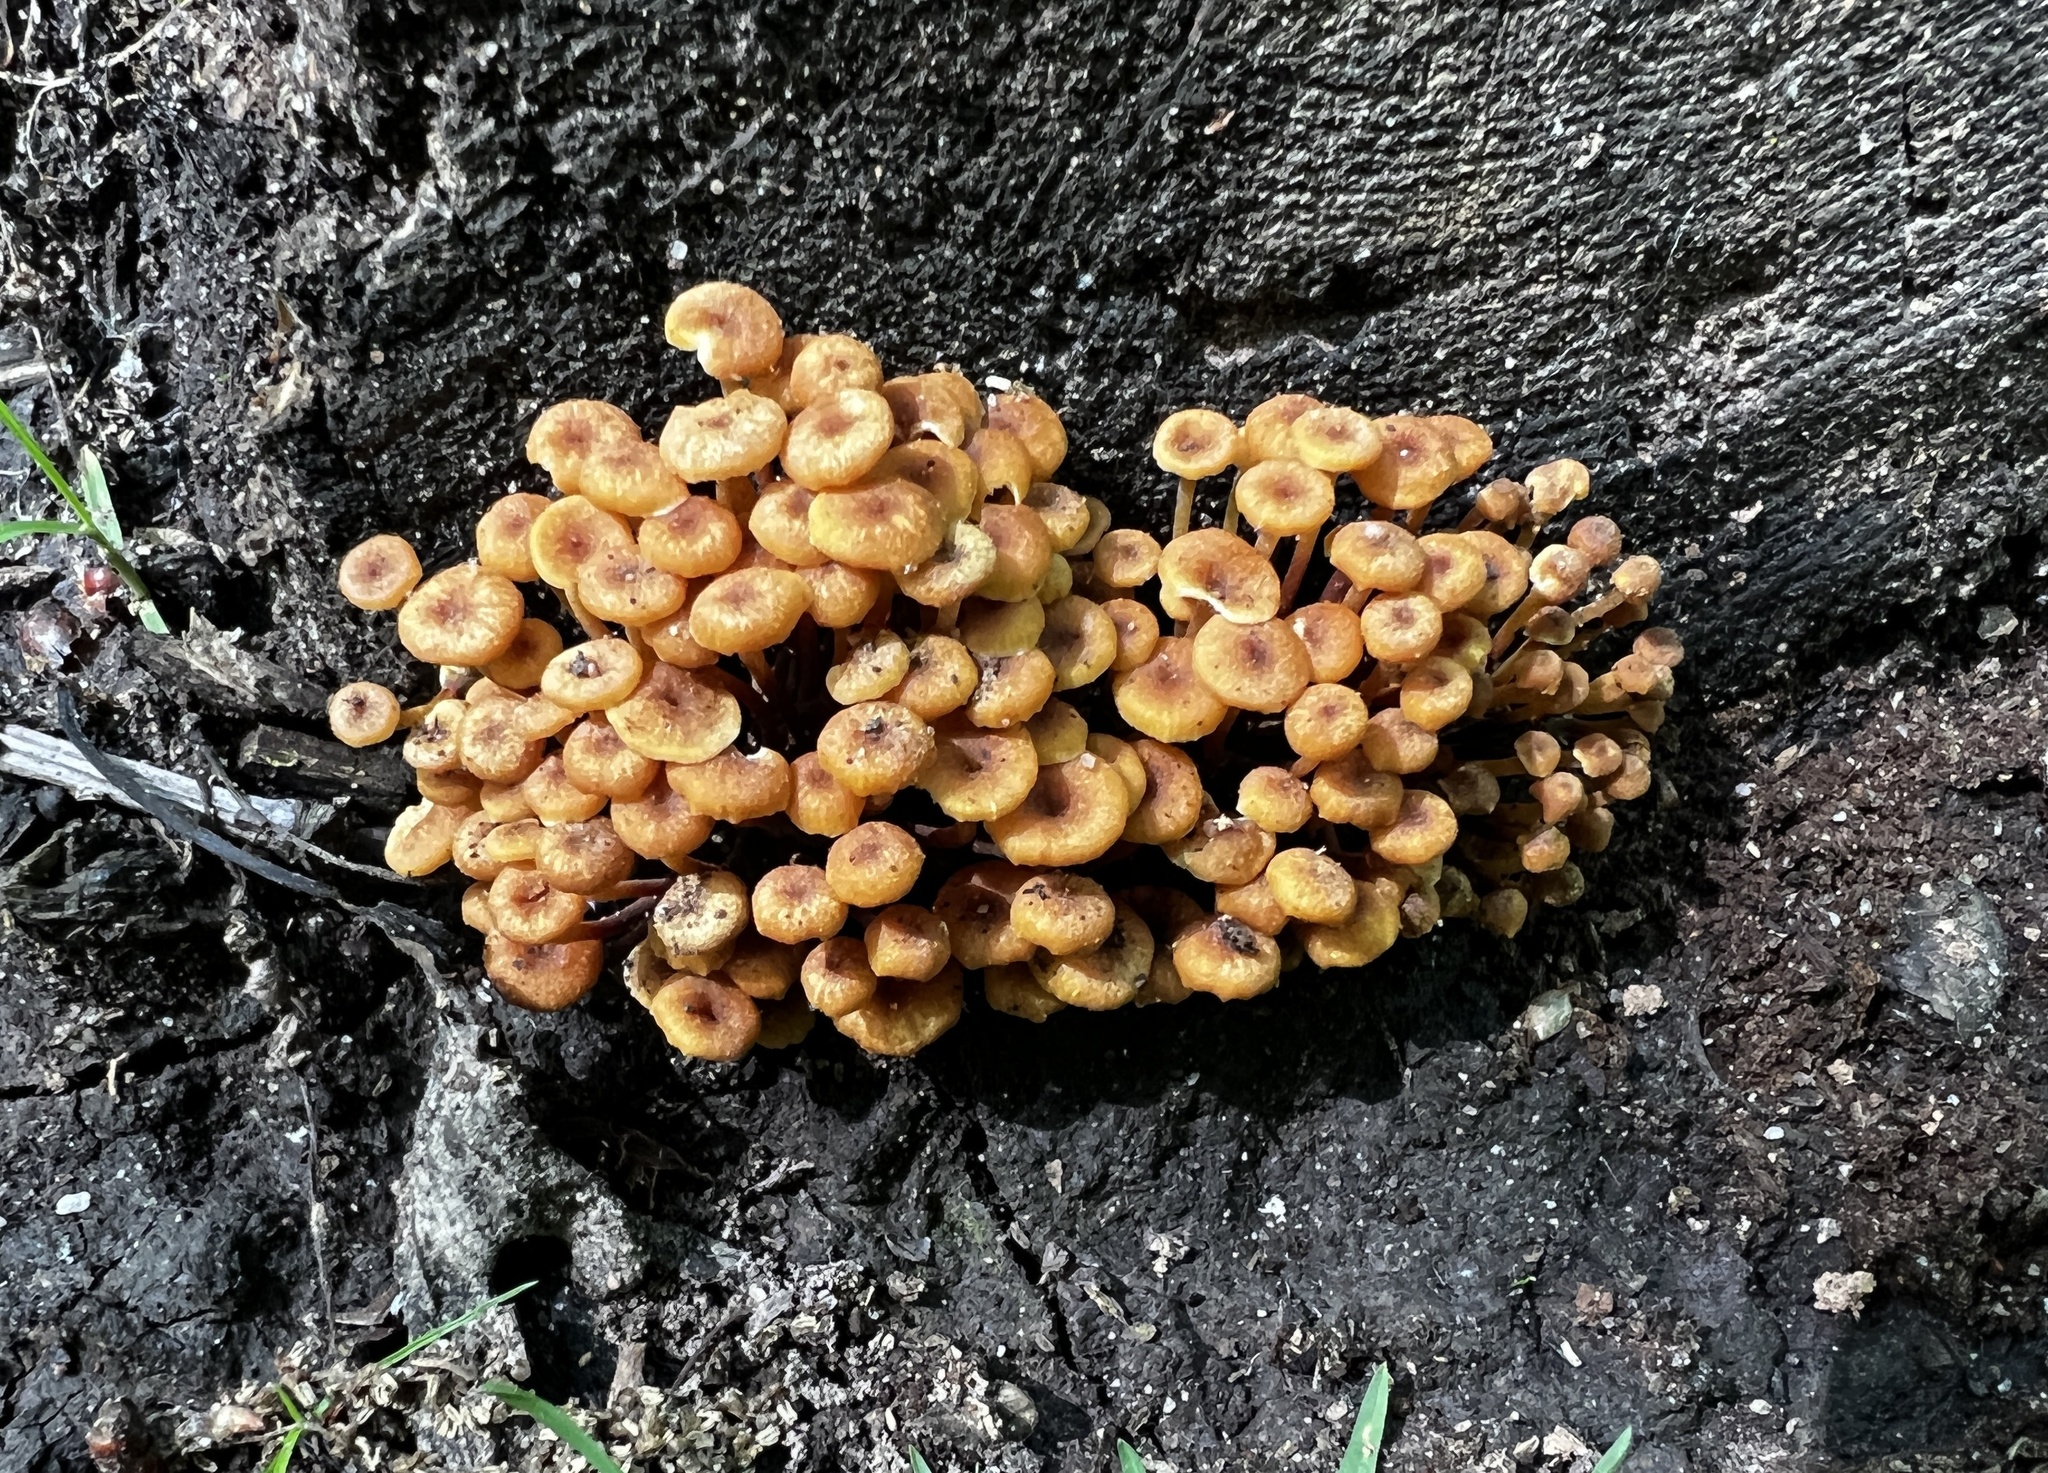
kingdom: Fungi
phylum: Basidiomycota
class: Agaricomycetes
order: Agaricales
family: Mycenaceae
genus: Xeromphalina
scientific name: Xeromphalina kauffmanii
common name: Cross-veined troop mushroom
